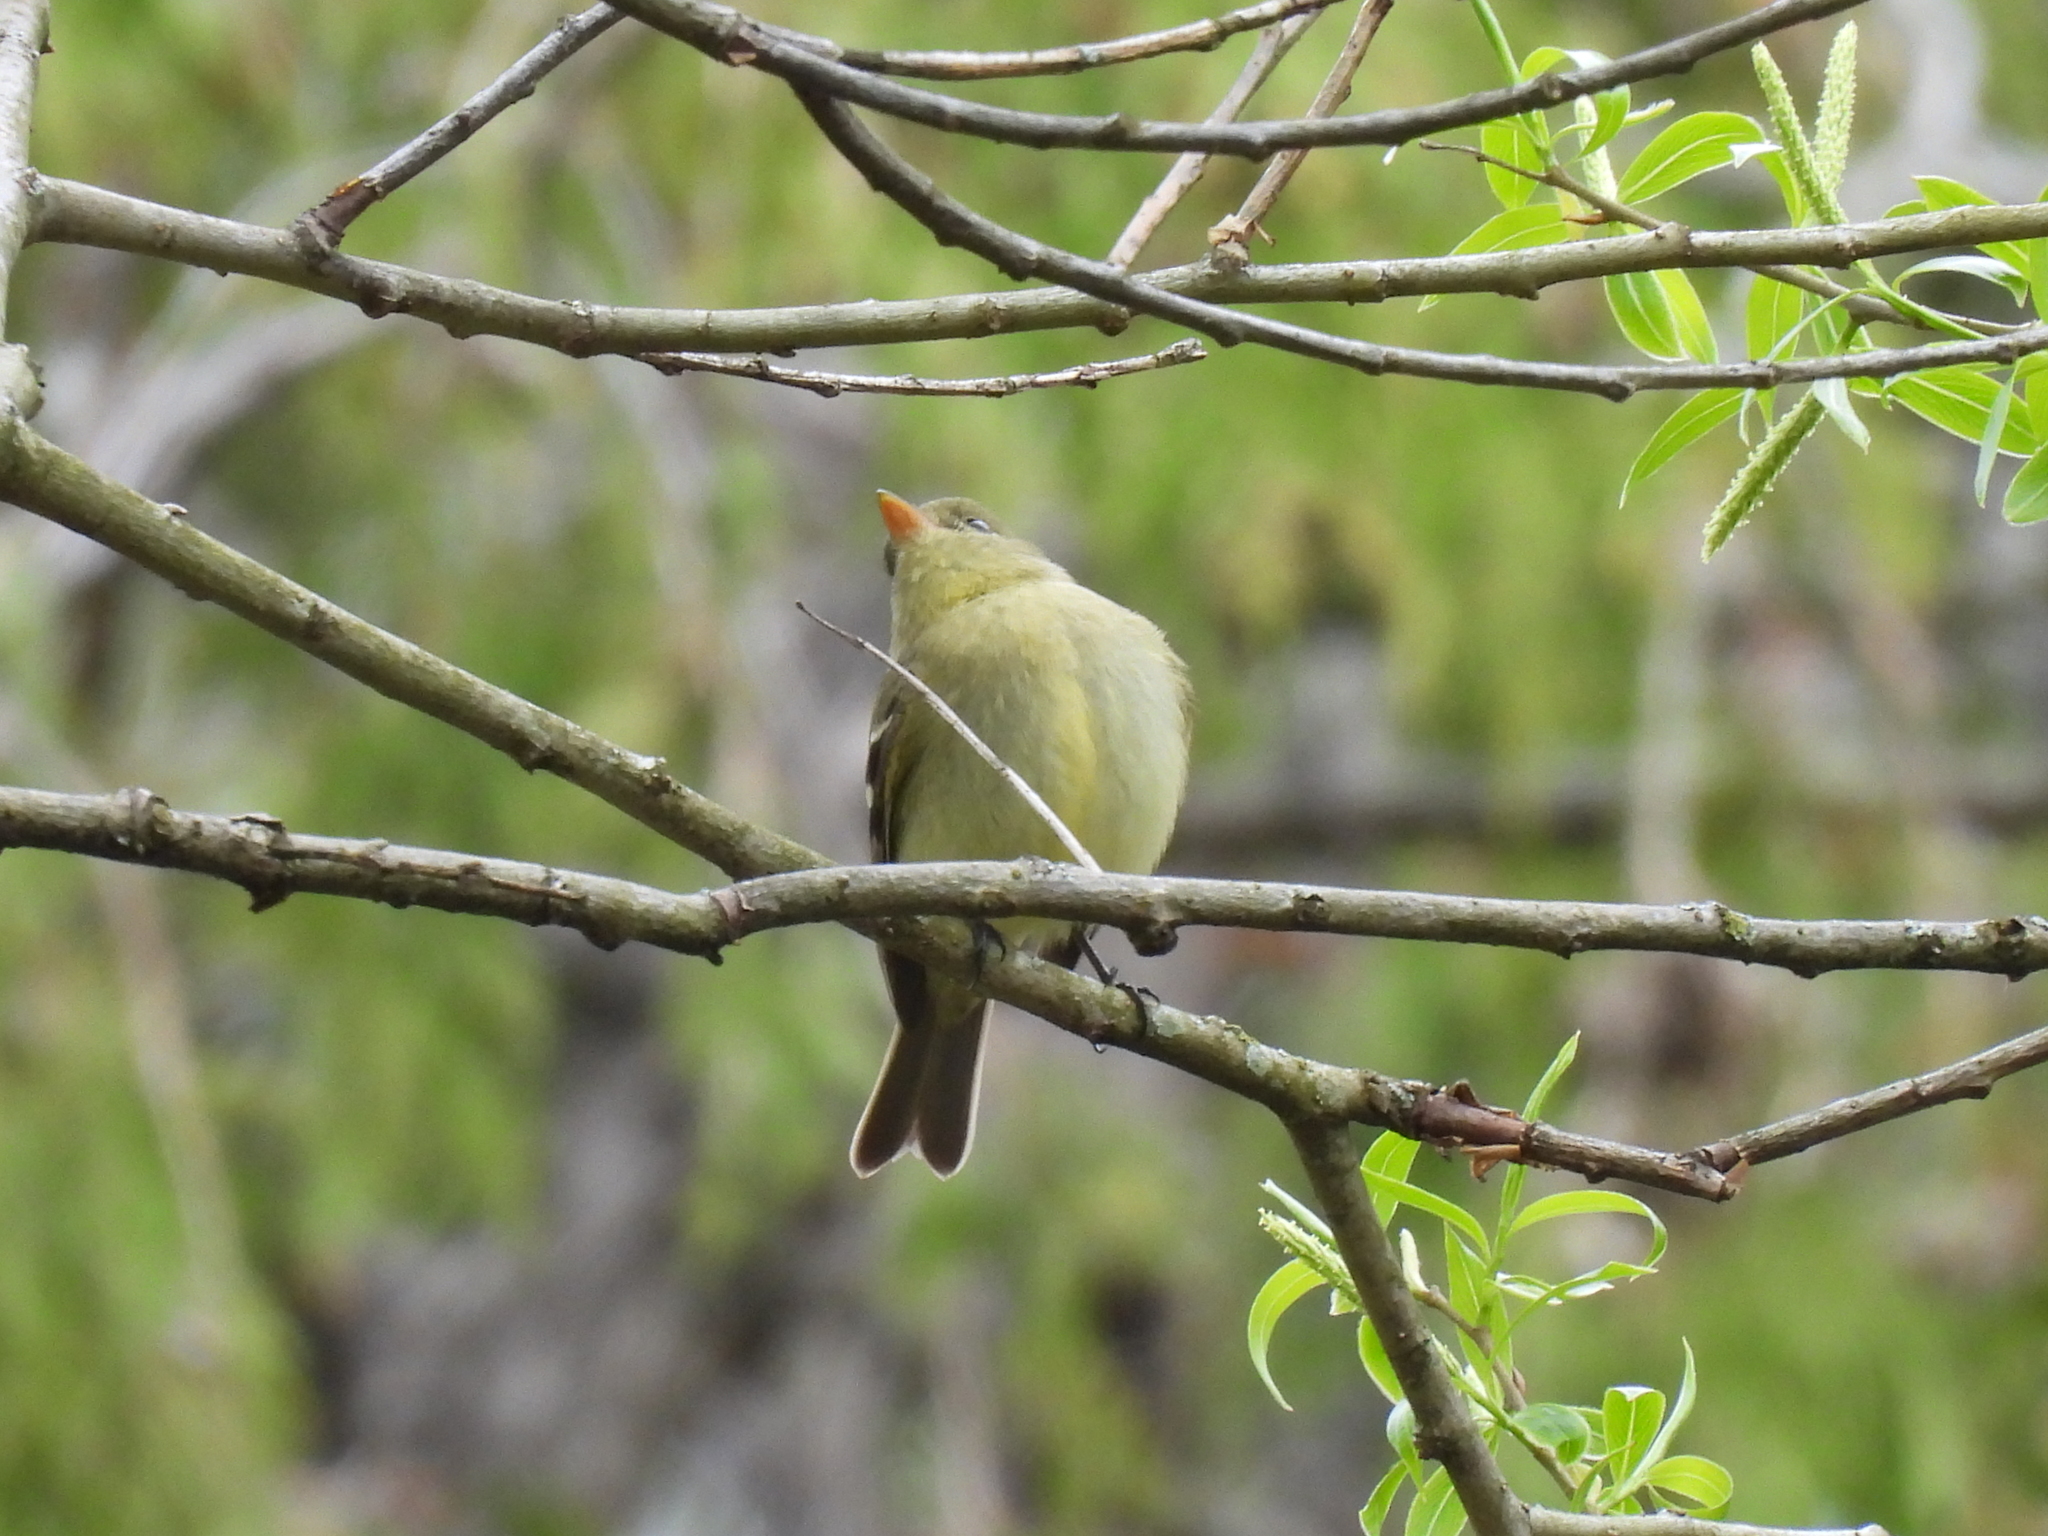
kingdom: Animalia
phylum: Chordata
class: Aves
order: Passeriformes
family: Tyrannidae
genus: Empidonax
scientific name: Empidonax flaviventris
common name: Yellow-bellied flycatcher
